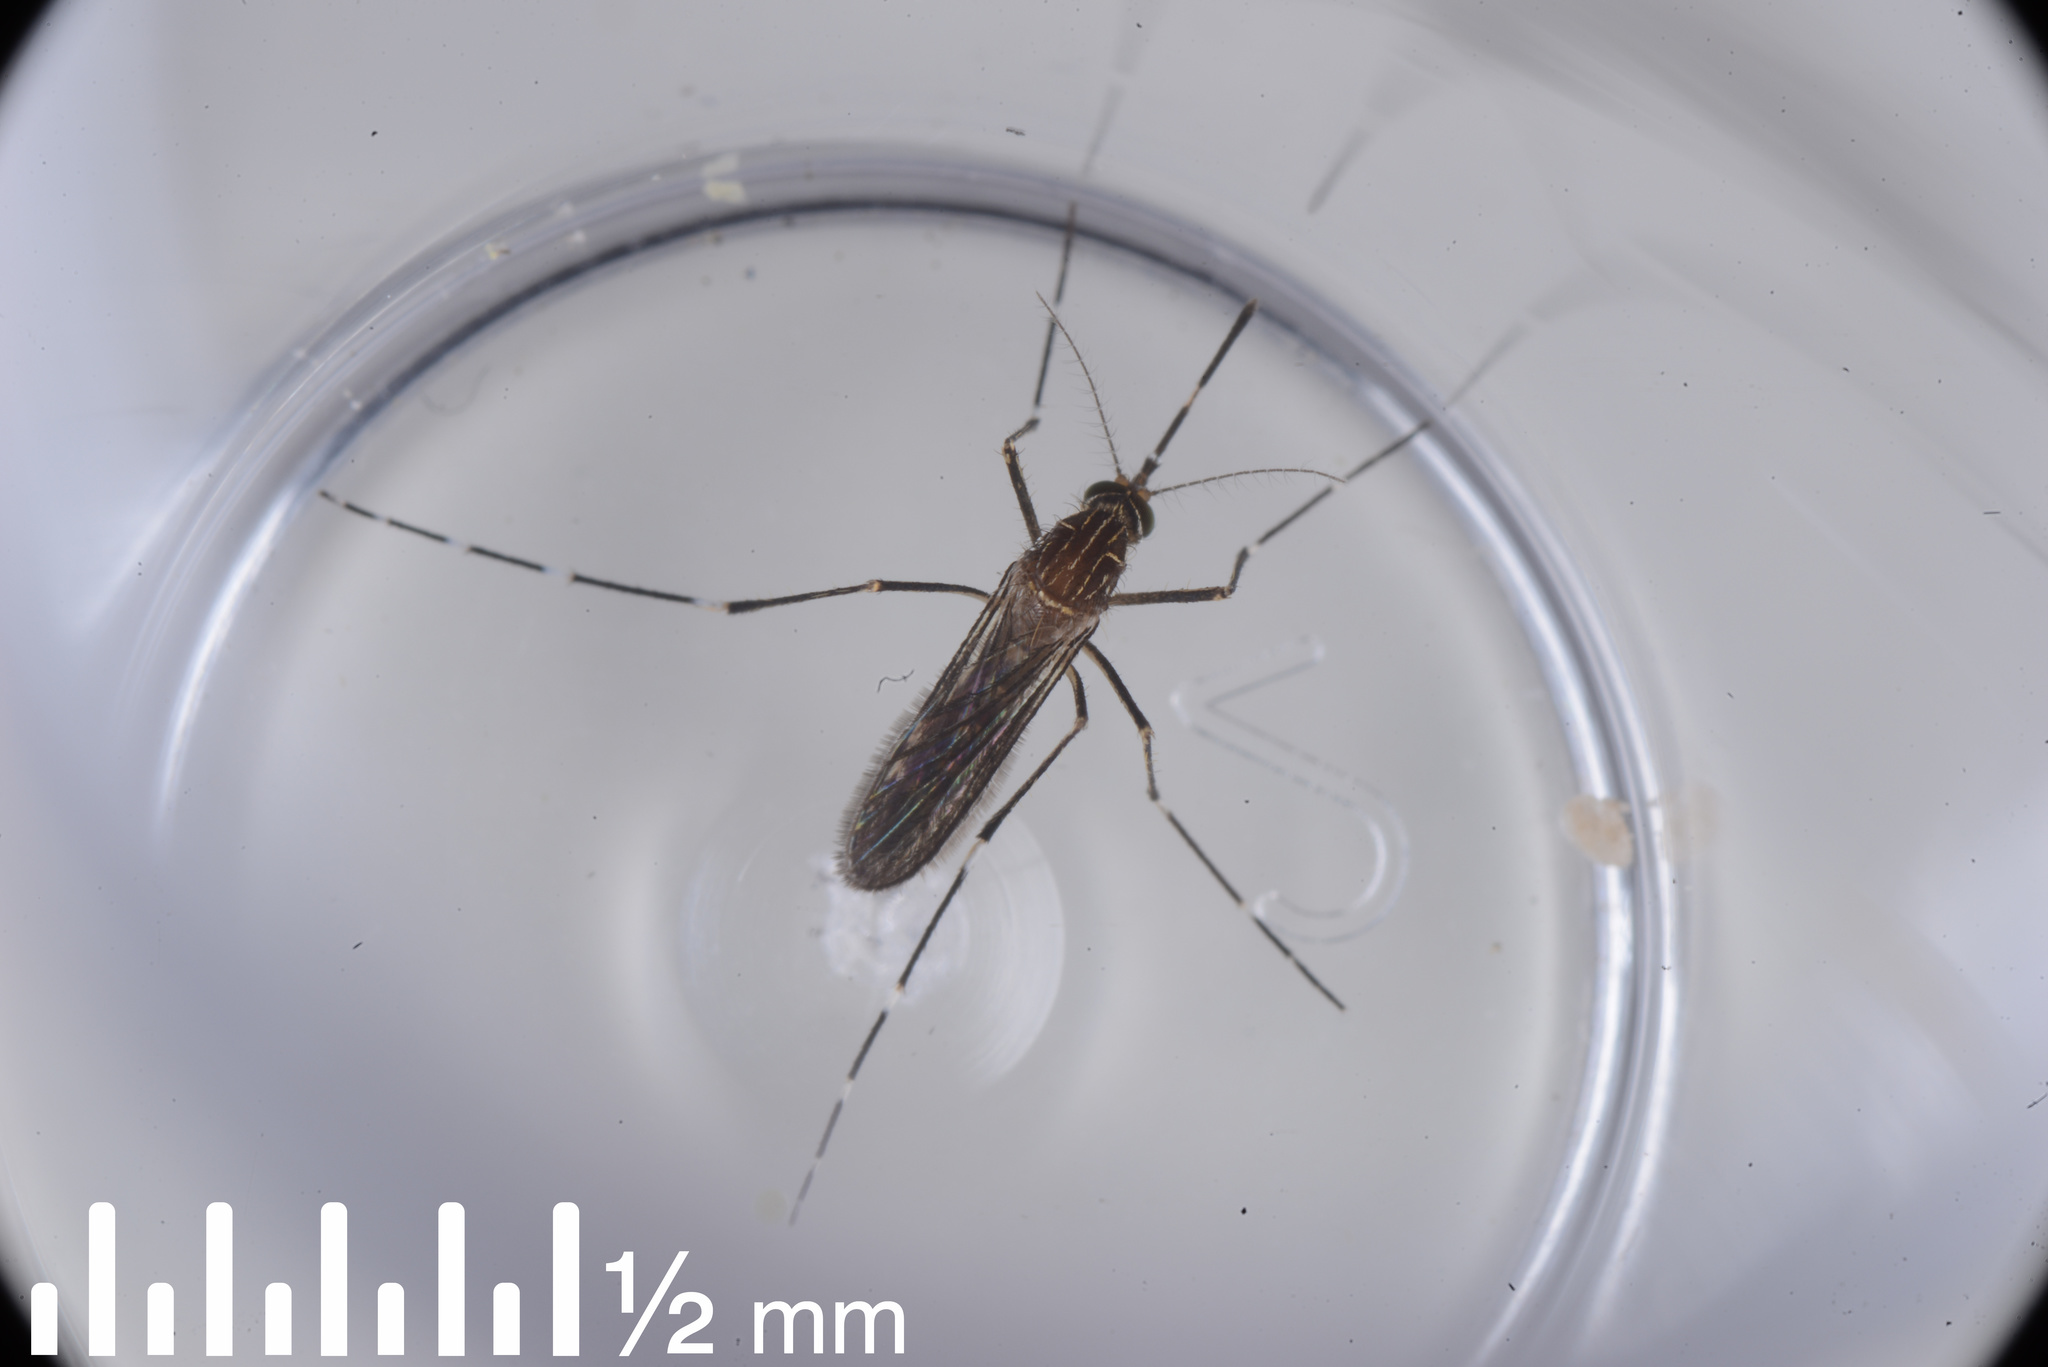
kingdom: Animalia
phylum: Arthropoda
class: Insecta
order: Diptera
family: Culicidae
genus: Aedes
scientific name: Aedes notoscriptus
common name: Australian backyard mosquito
